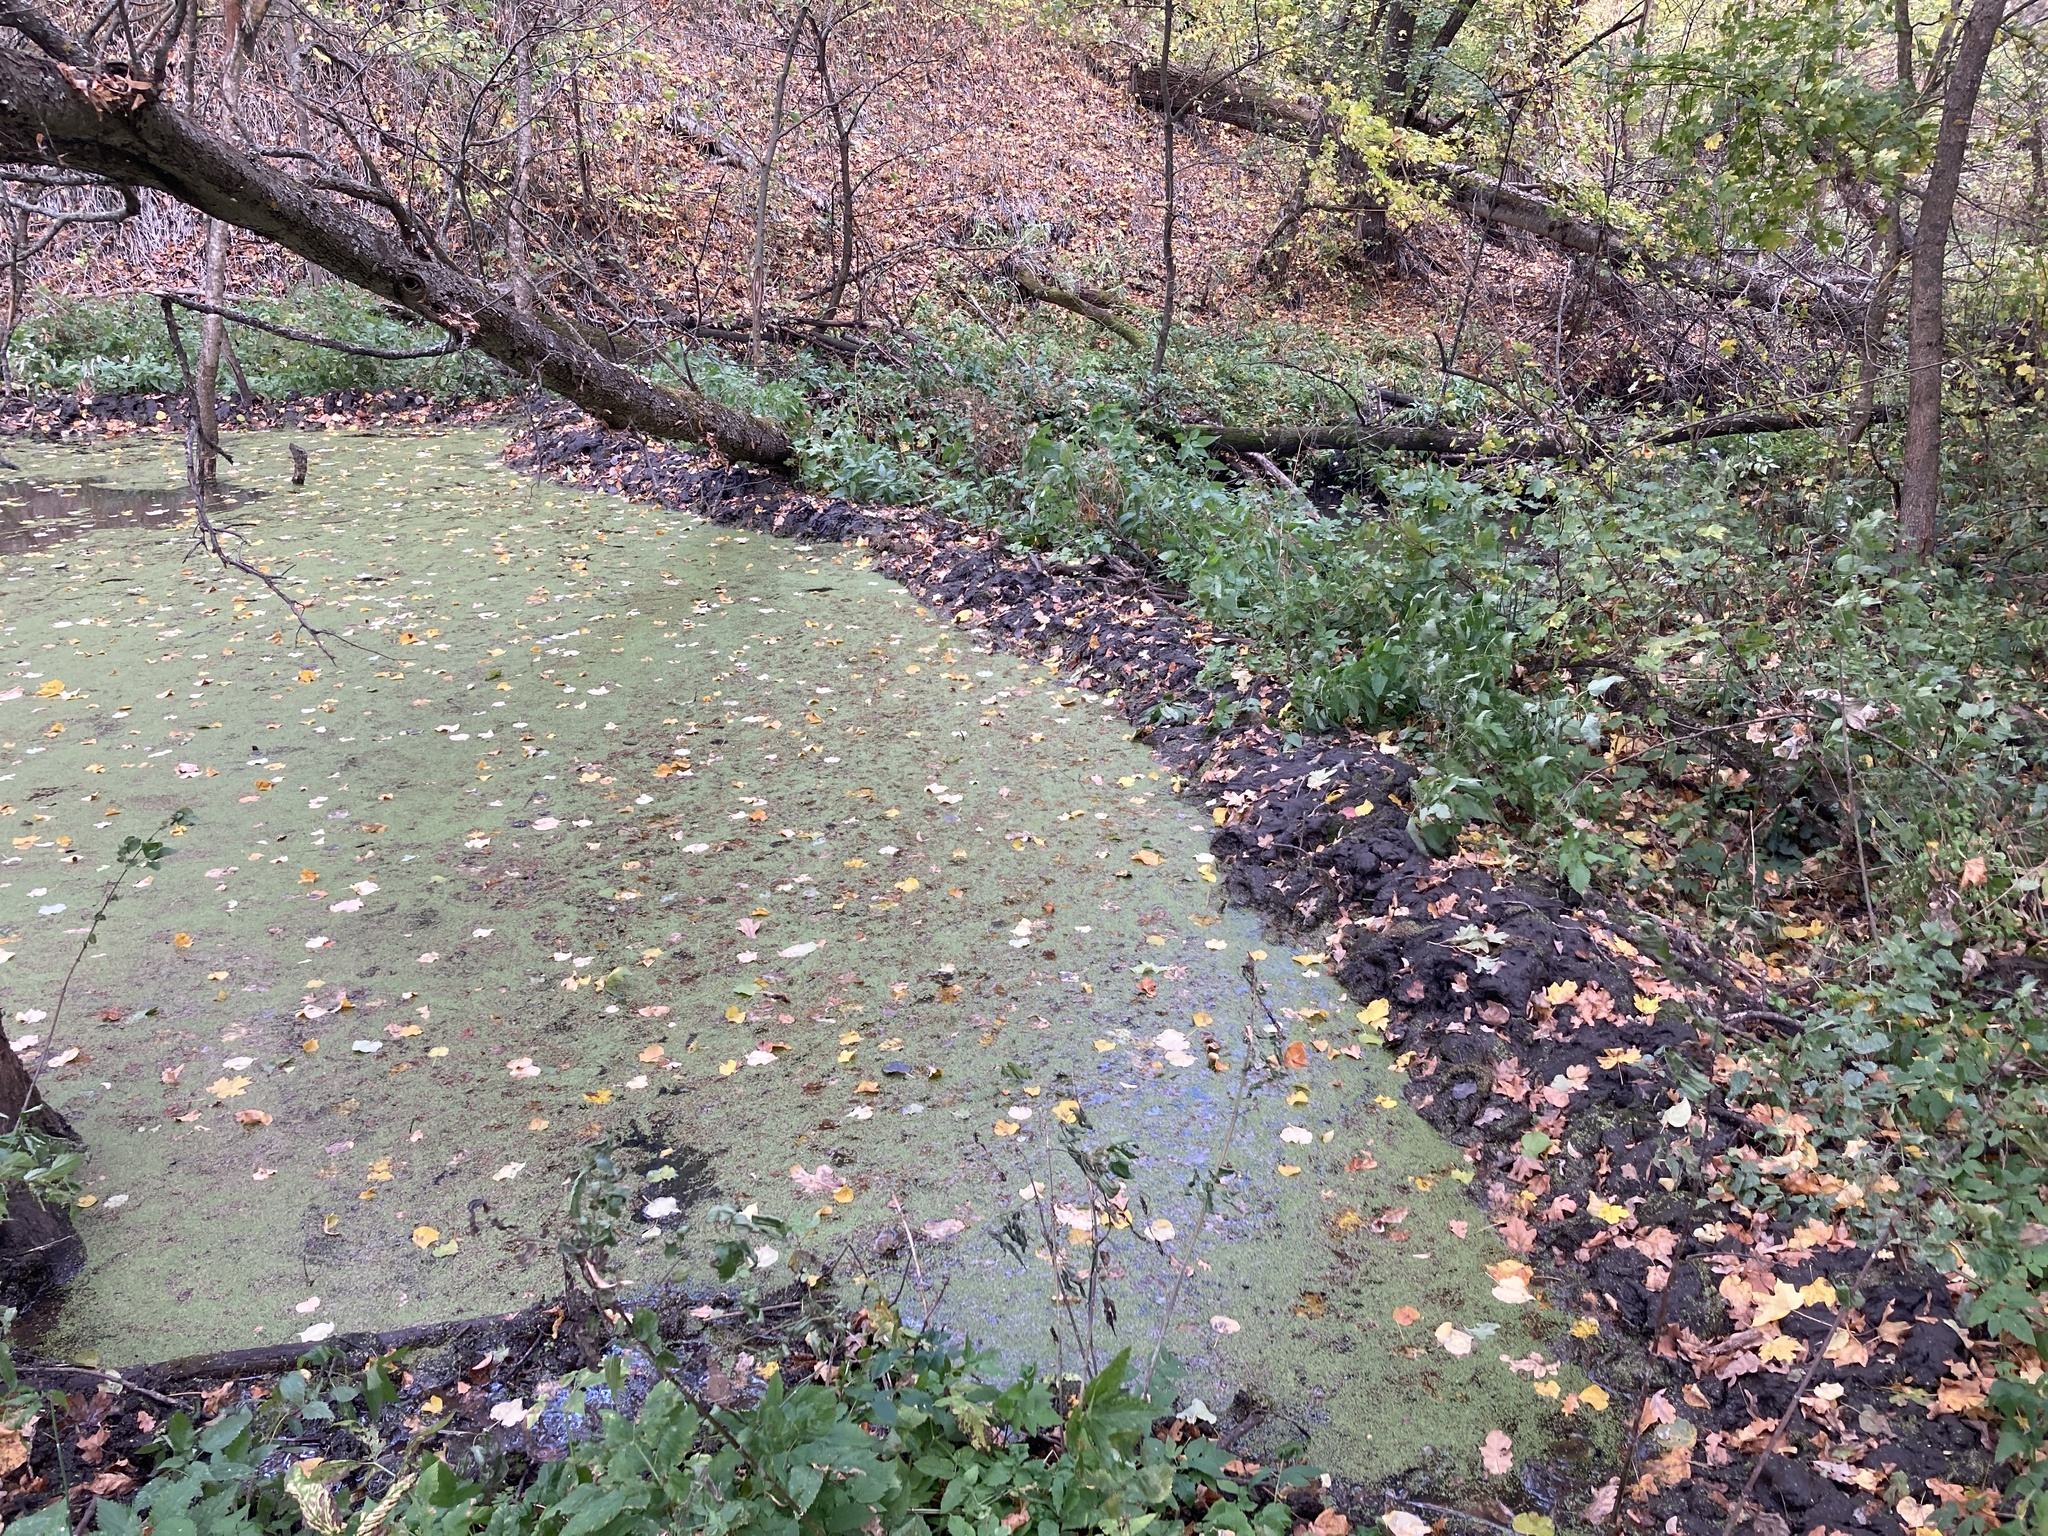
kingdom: Animalia
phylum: Chordata
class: Mammalia
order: Rodentia
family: Castoridae
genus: Castor
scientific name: Castor fiber
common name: Eurasian beaver
